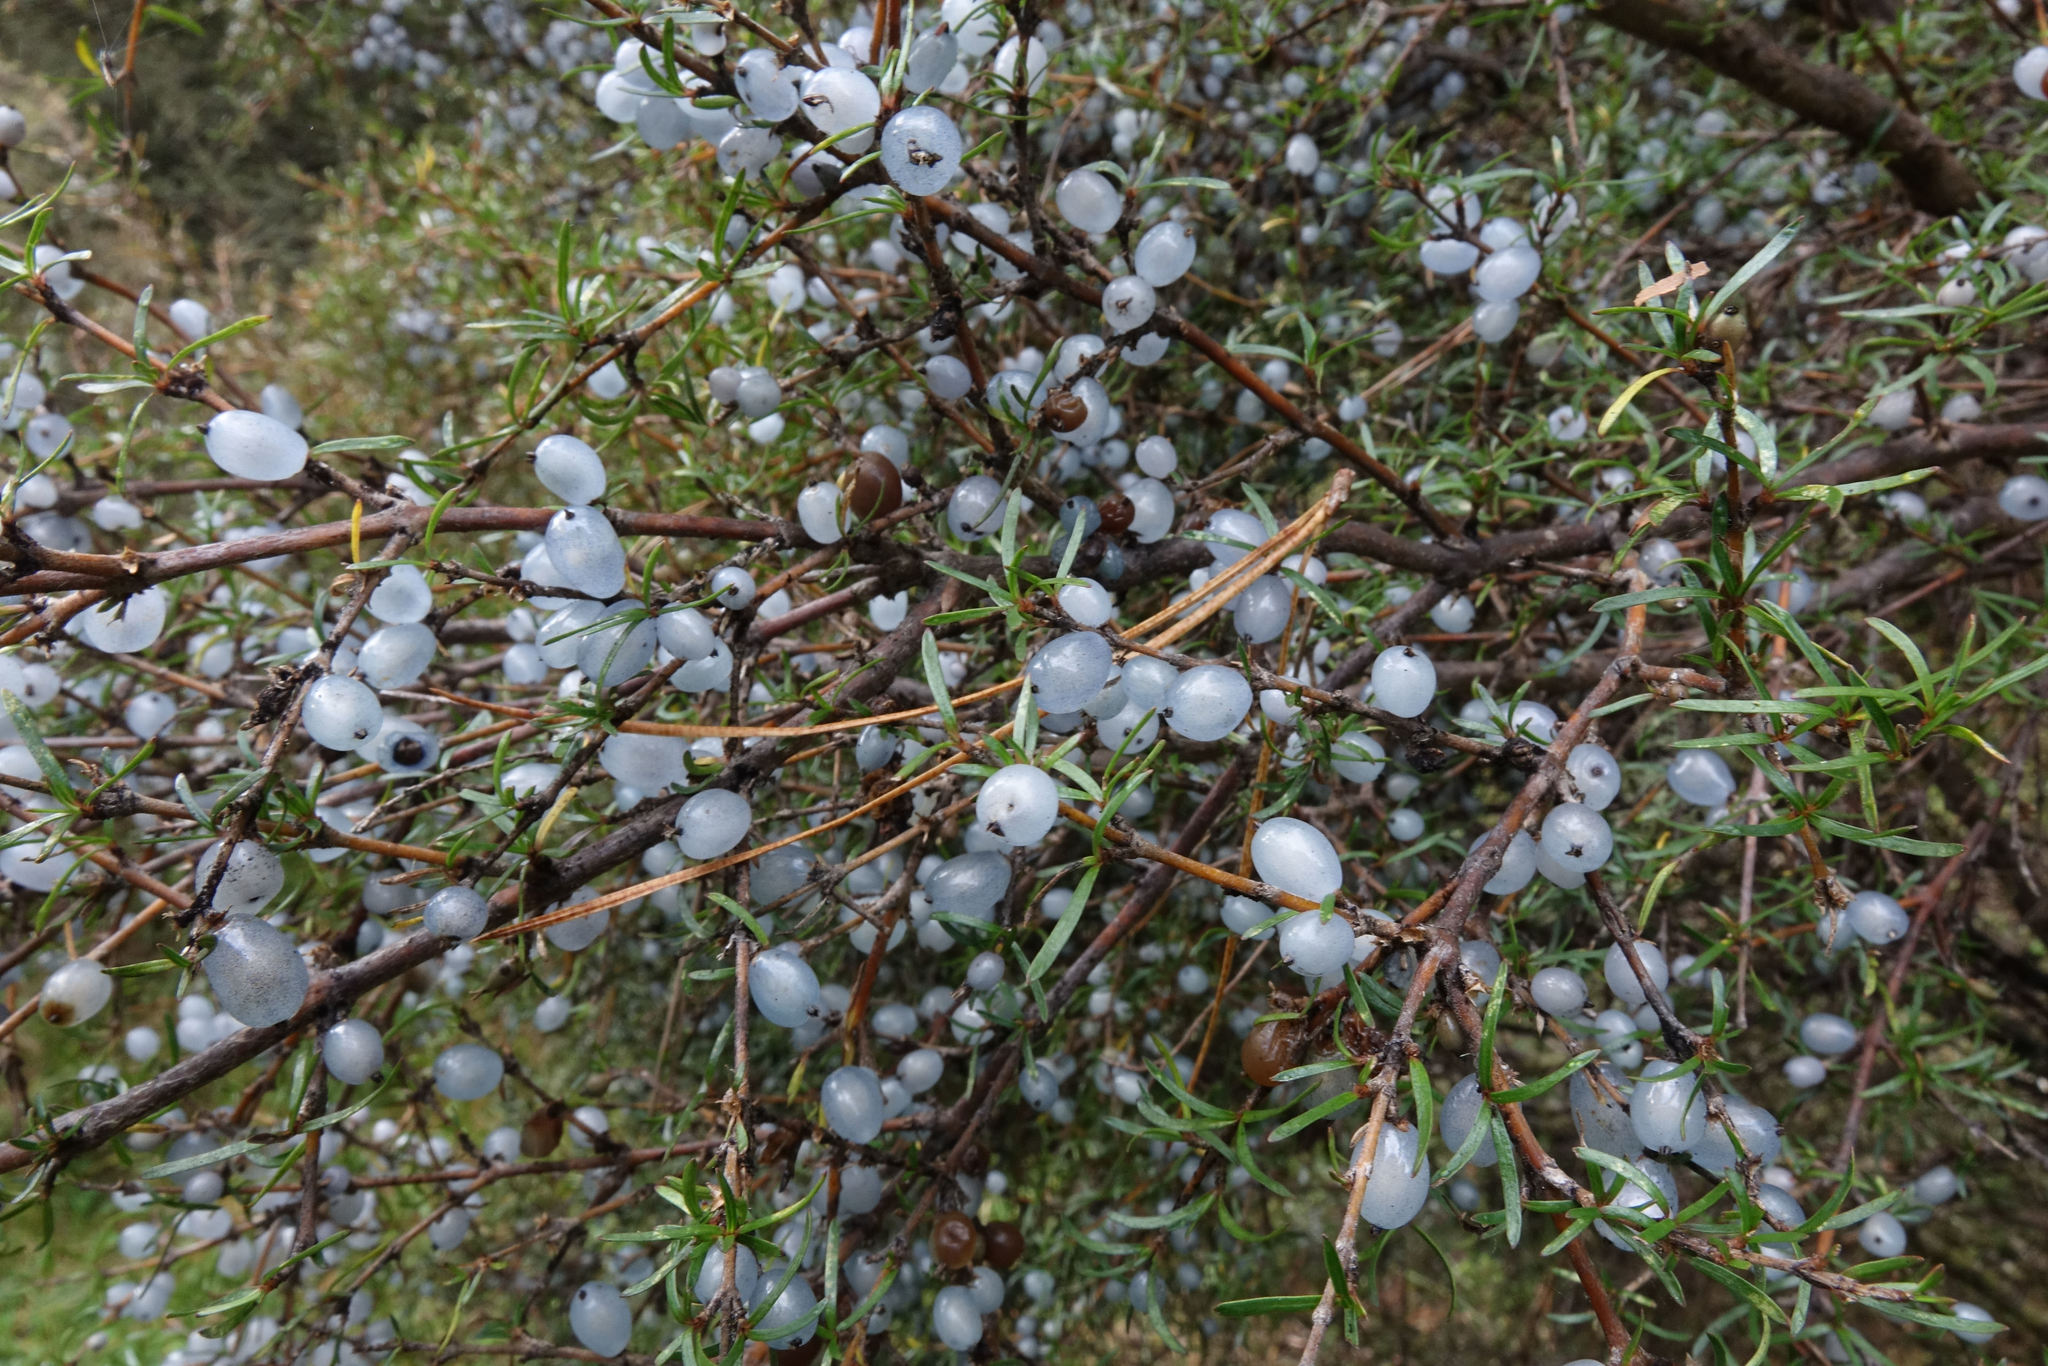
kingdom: Plantae
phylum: Tracheophyta
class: Magnoliopsida
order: Gentianales
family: Rubiaceae
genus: Coprosma
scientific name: Coprosma rugosa
